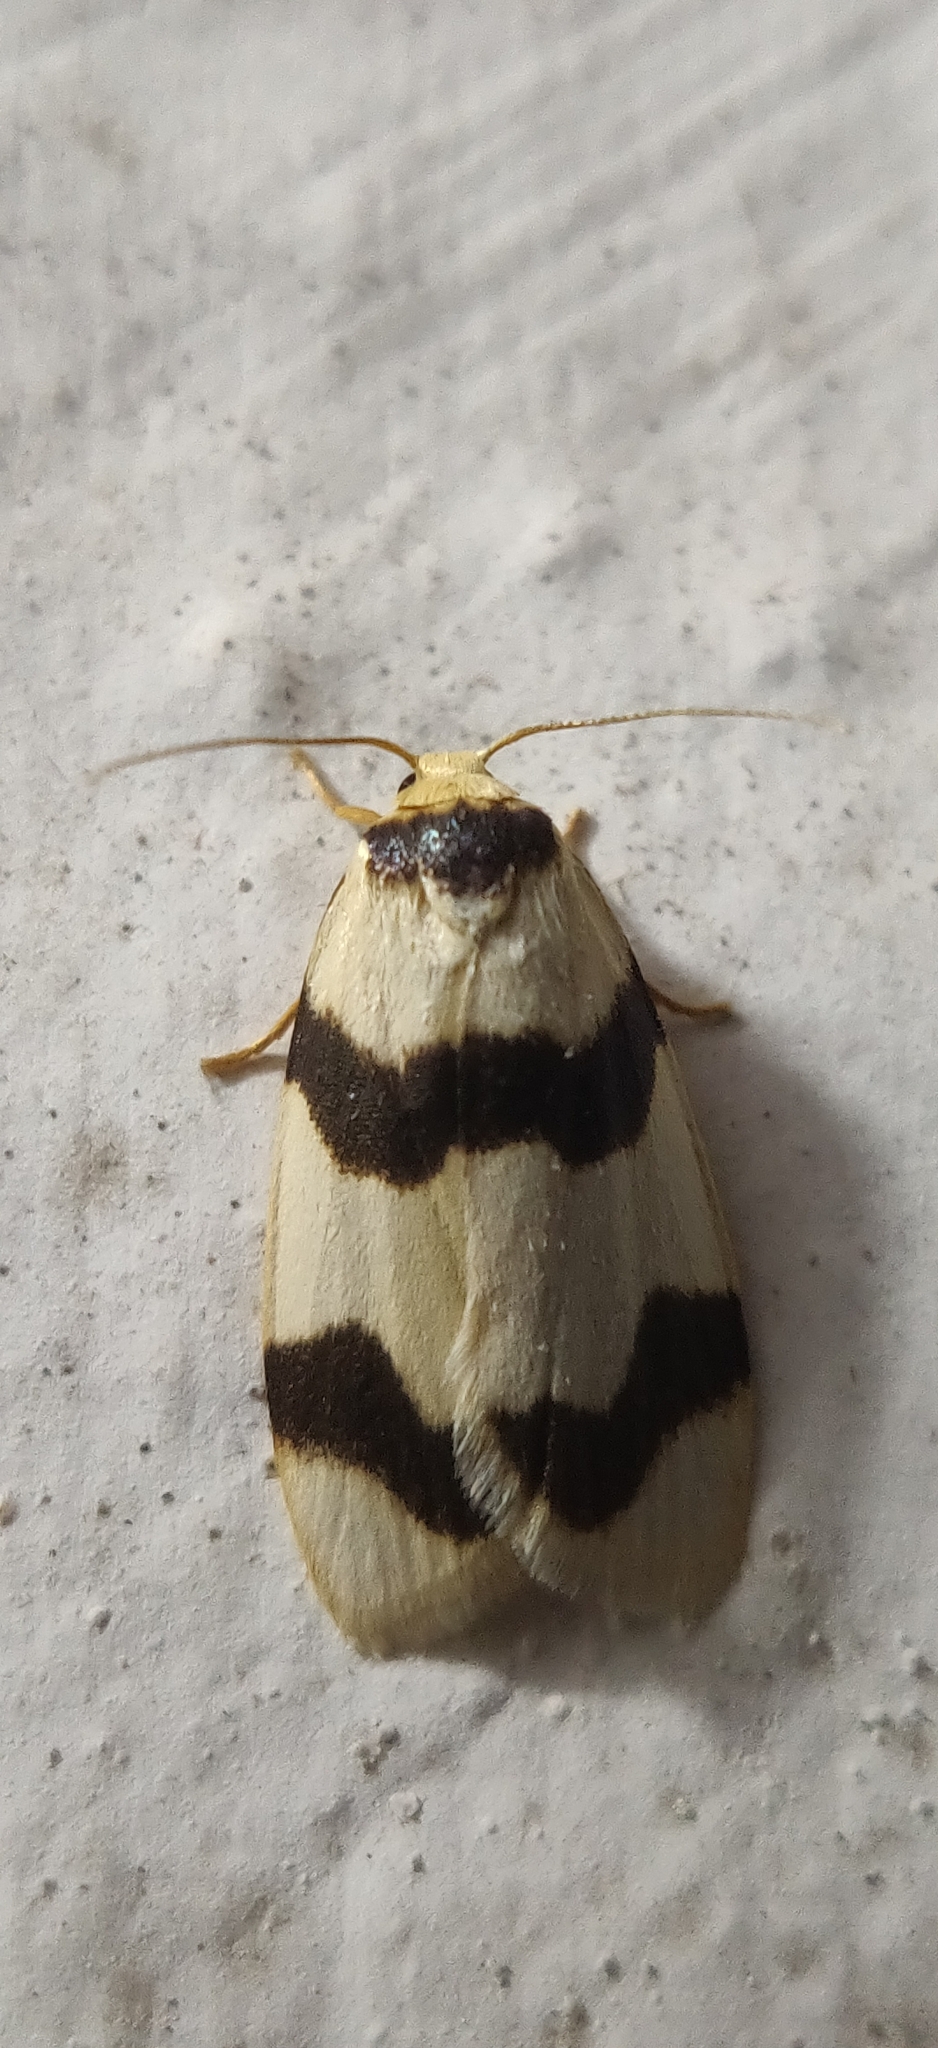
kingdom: Animalia
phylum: Arthropoda
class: Insecta
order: Lepidoptera
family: Erebidae
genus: Padenia
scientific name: Padenia transversa
